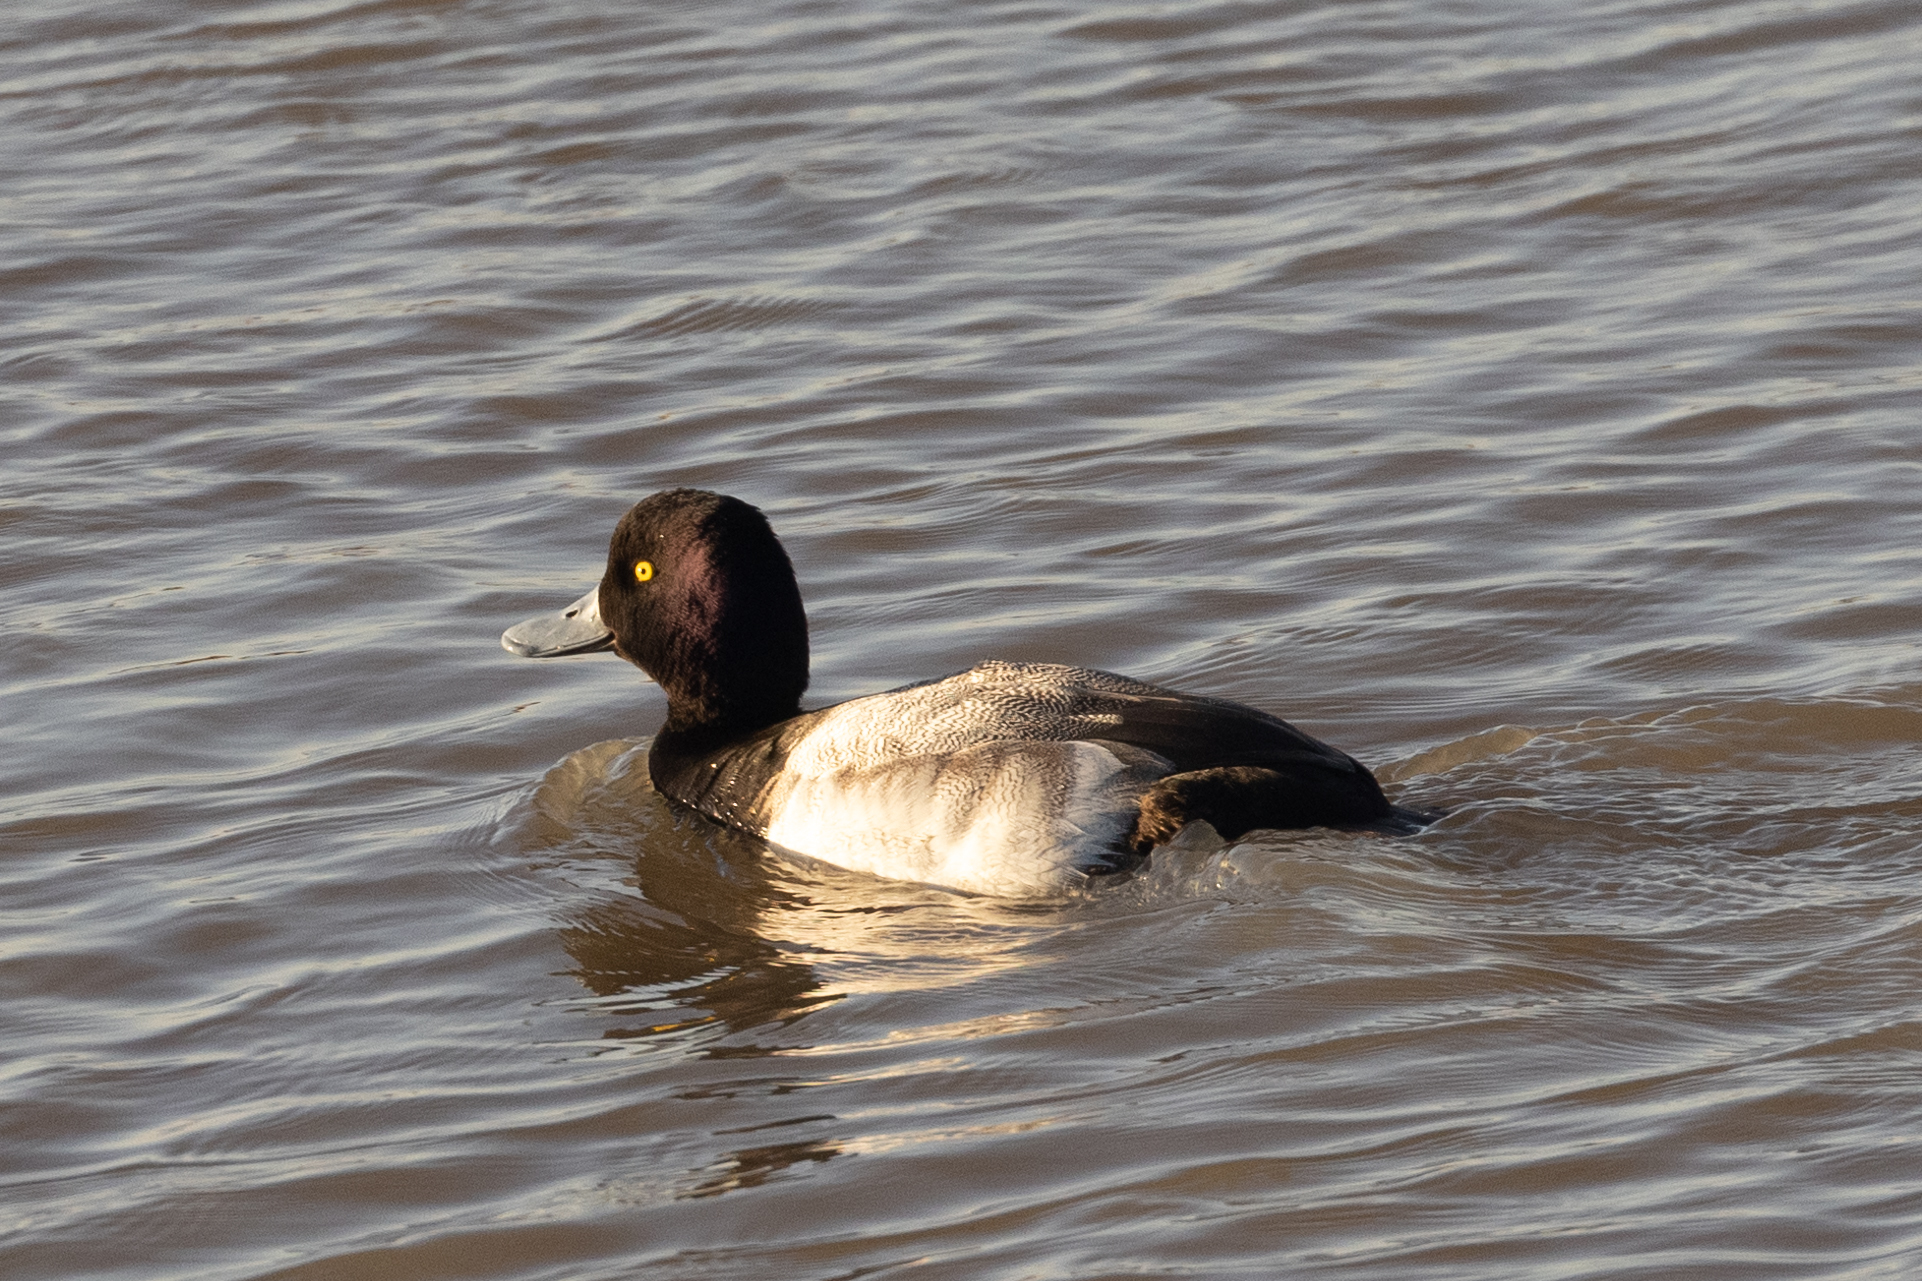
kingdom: Animalia
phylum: Chordata
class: Aves
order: Anseriformes
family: Anatidae
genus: Aythya
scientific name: Aythya affinis
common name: Lesser scaup
